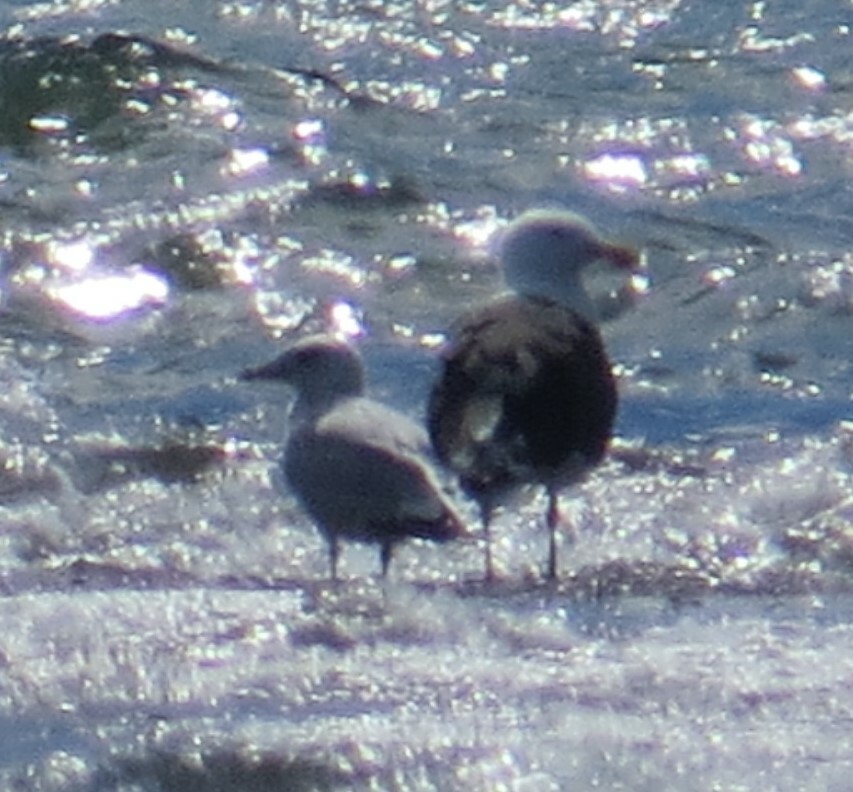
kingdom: Animalia
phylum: Chordata
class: Aves
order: Charadriiformes
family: Laridae
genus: Larus
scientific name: Larus marinus
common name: Great black-backed gull
